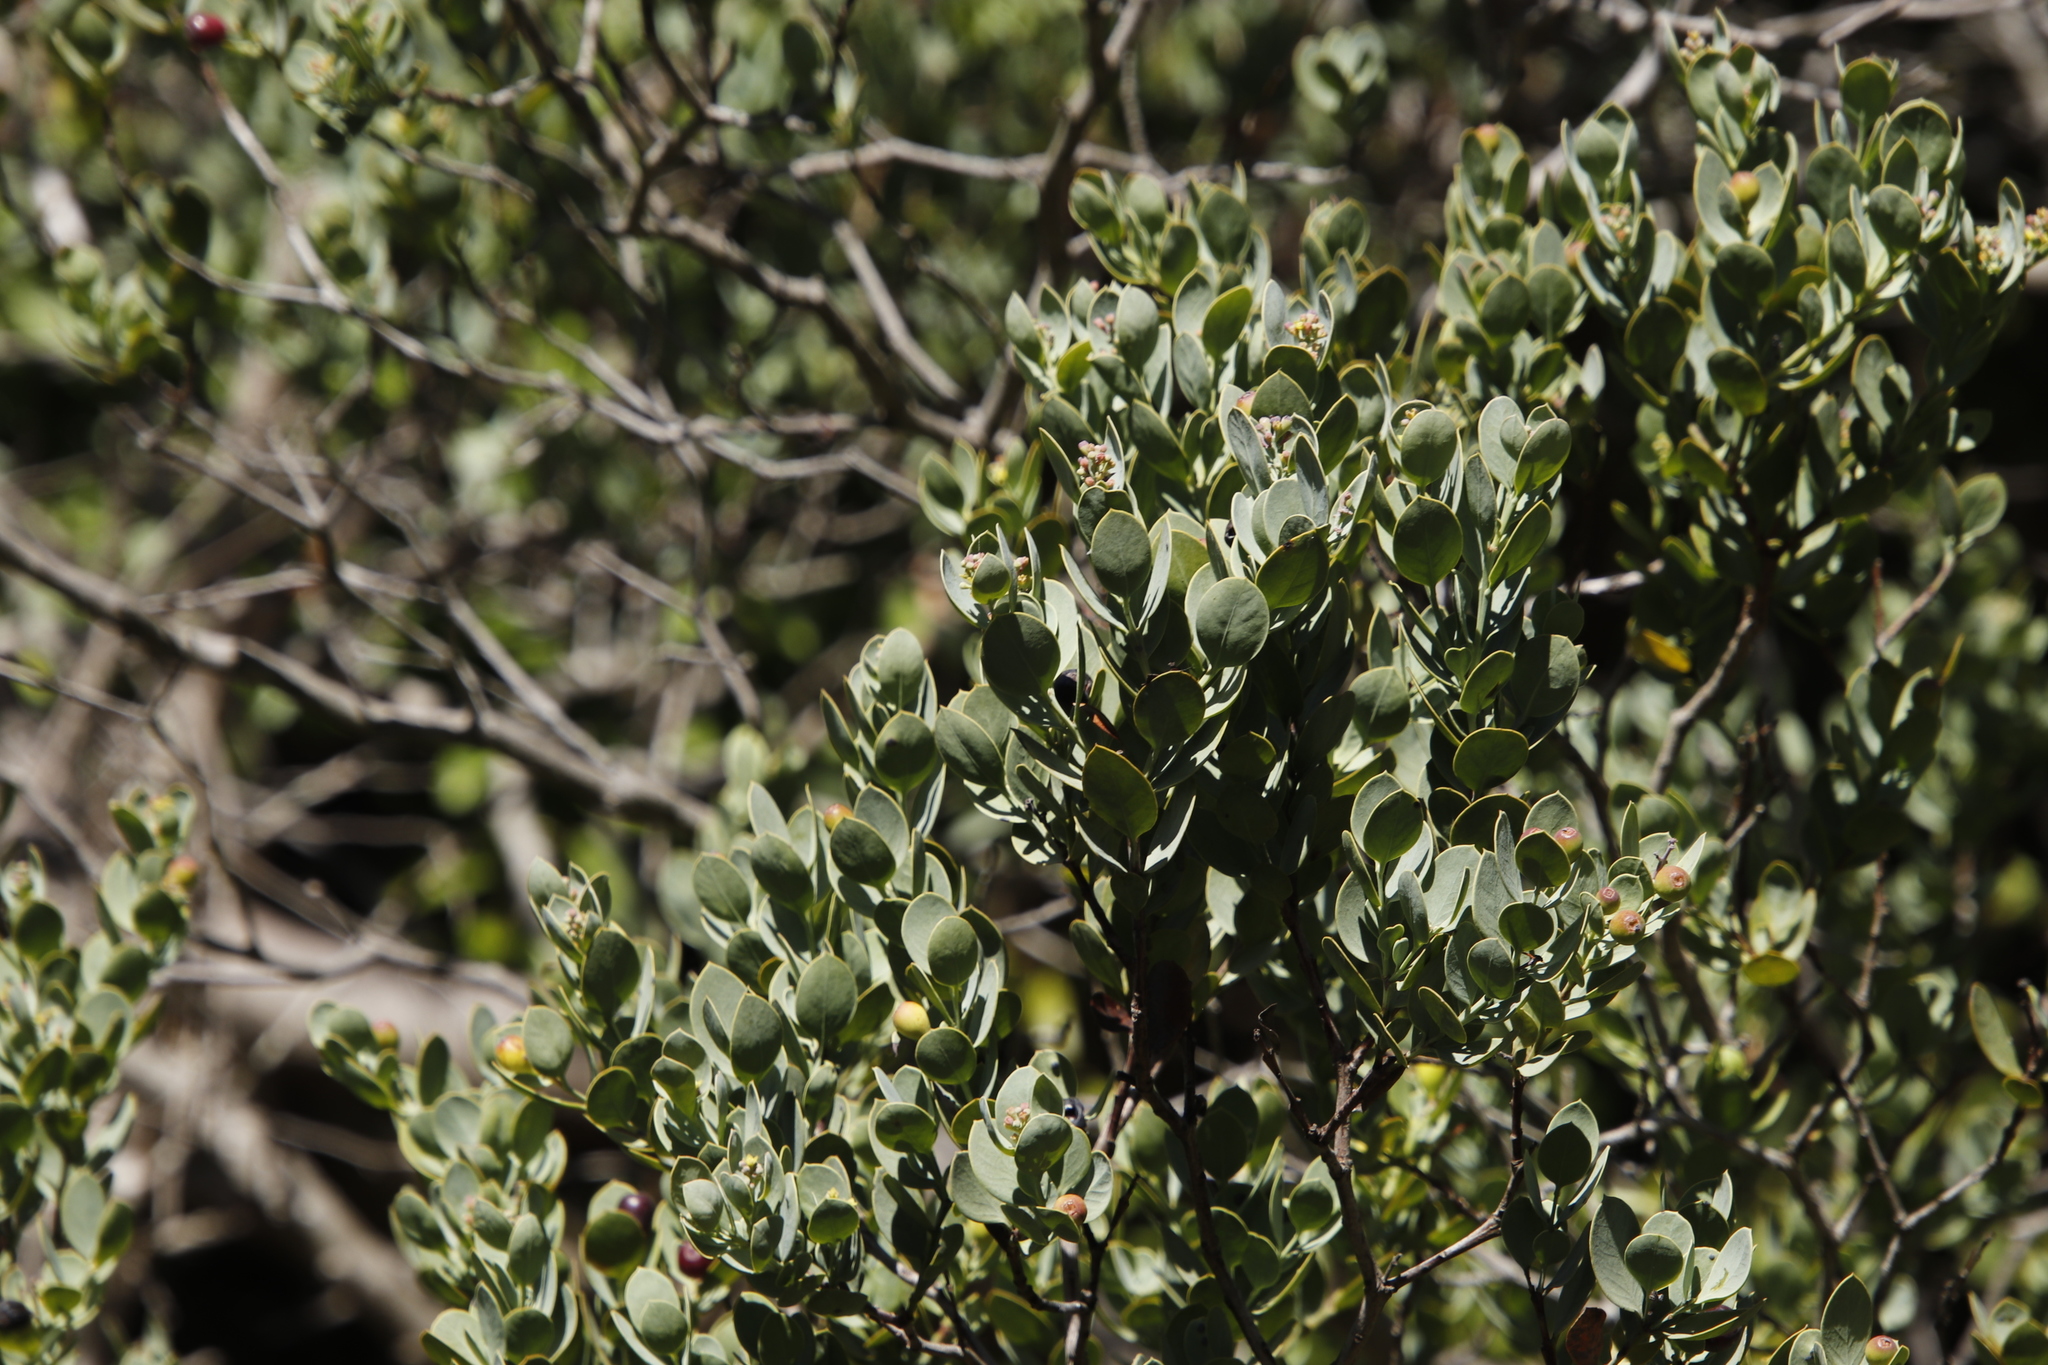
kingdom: Plantae
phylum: Tracheophyta
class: Magnoliopsida
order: Santalales
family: Santalaceae
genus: Osyris
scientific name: Osyris compressa
